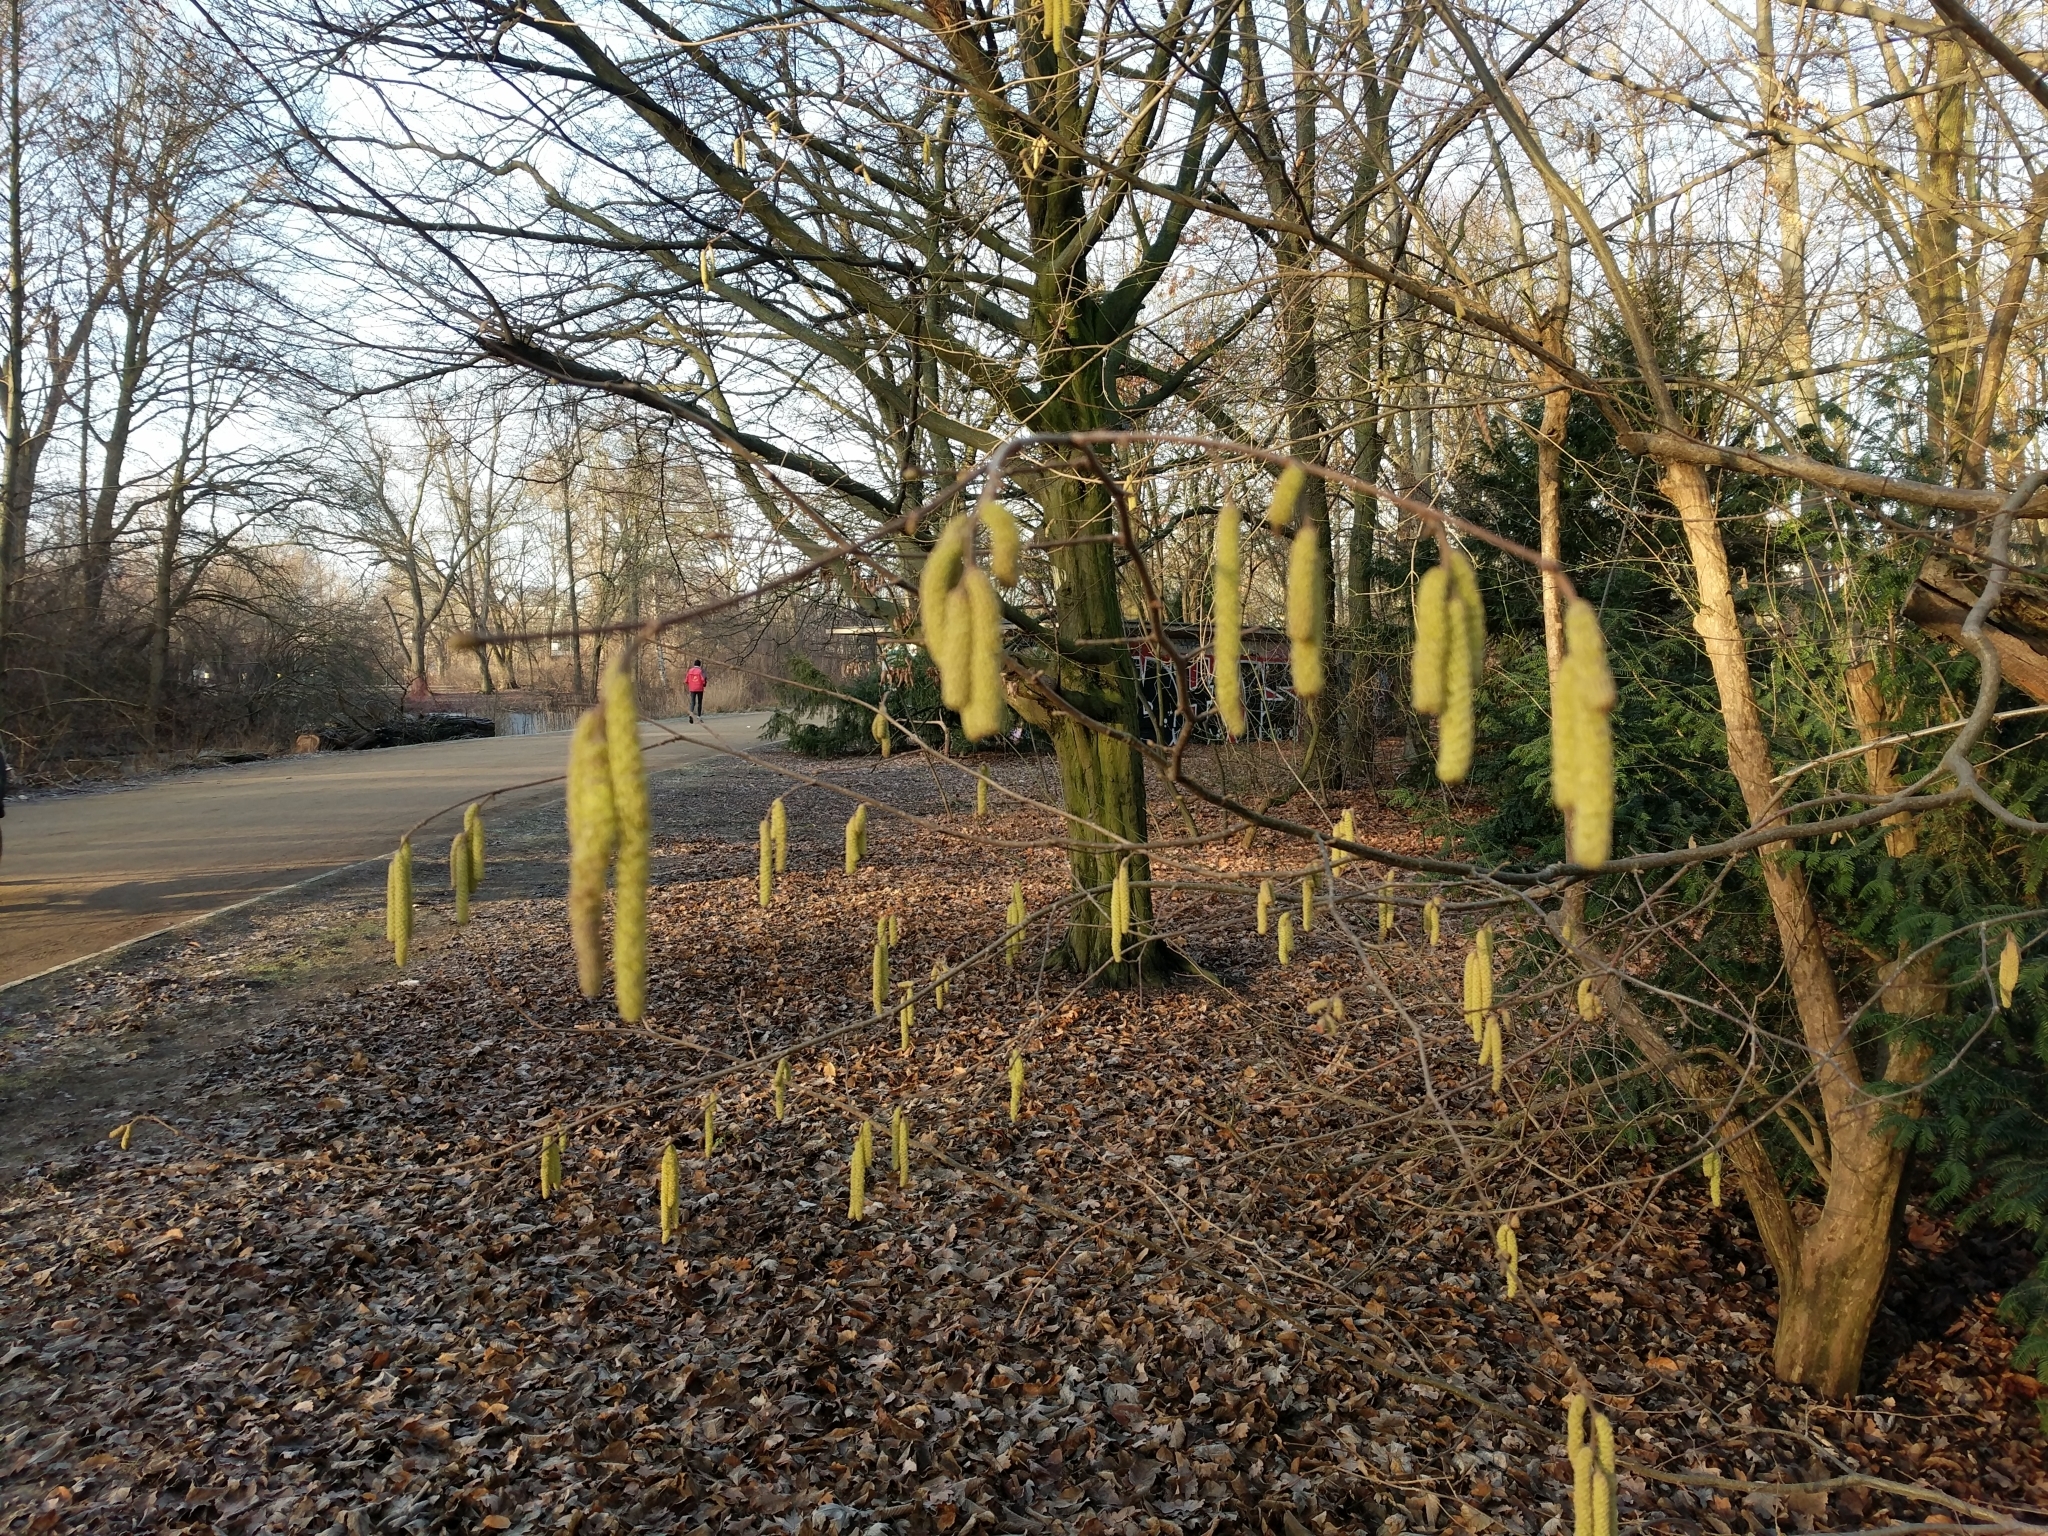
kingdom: Plantae
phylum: Tracheophyta
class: Magnoliopsida
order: Fagales
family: Betulaceae
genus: Corylus
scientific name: Corylus avellana
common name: European hazel
